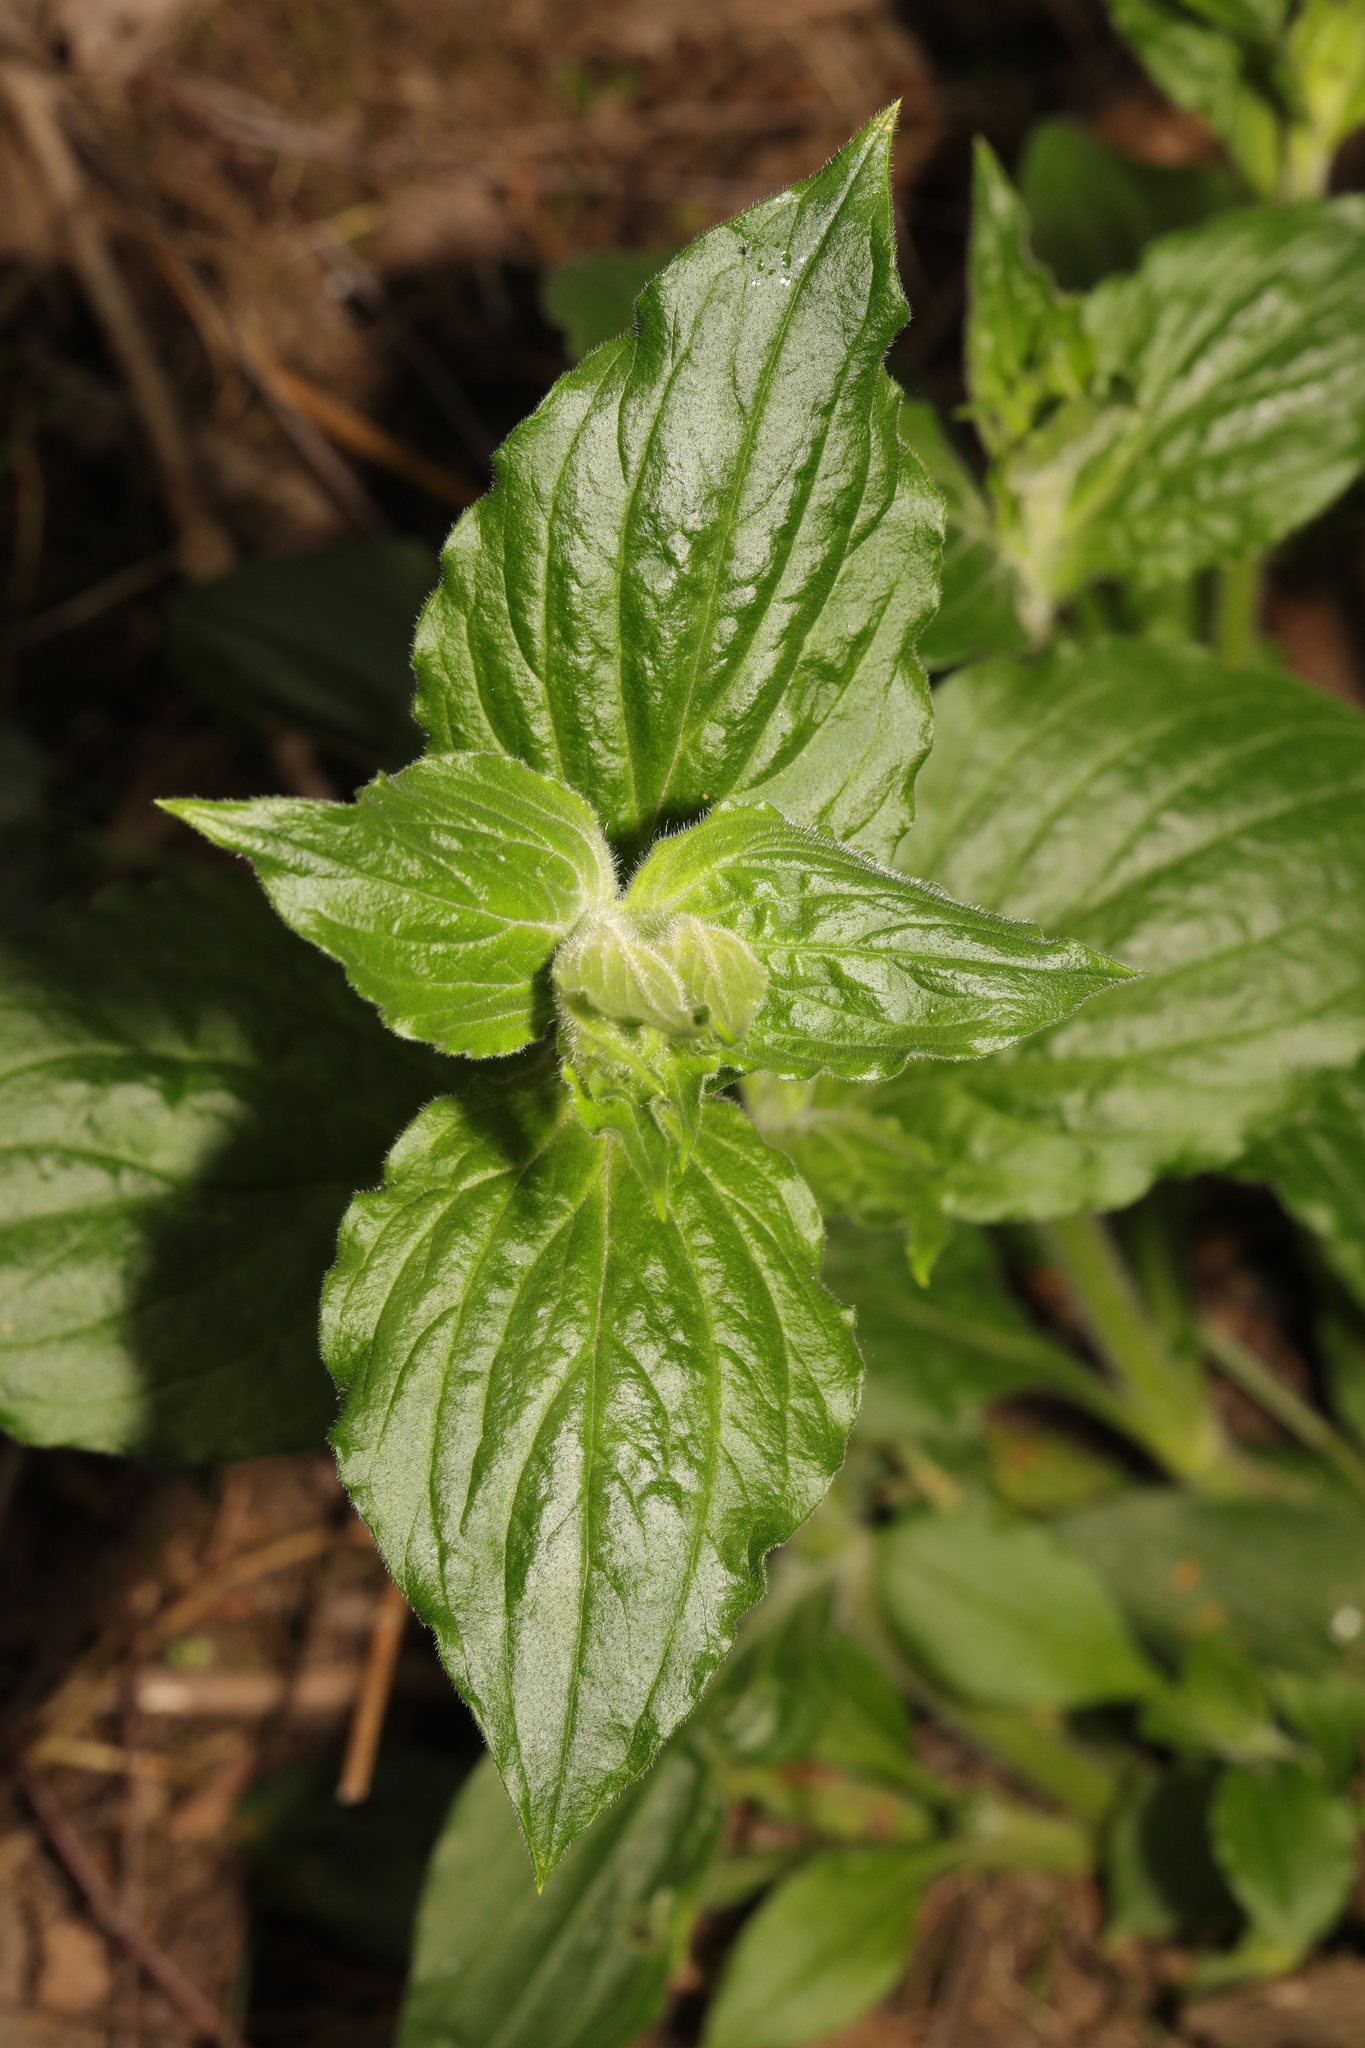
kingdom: Plantae
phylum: Tracheophyta
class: Magnoliopsida
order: Caryophyllales
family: Caryophyllaceae
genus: Silene
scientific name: Silene dioica
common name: Red campion
